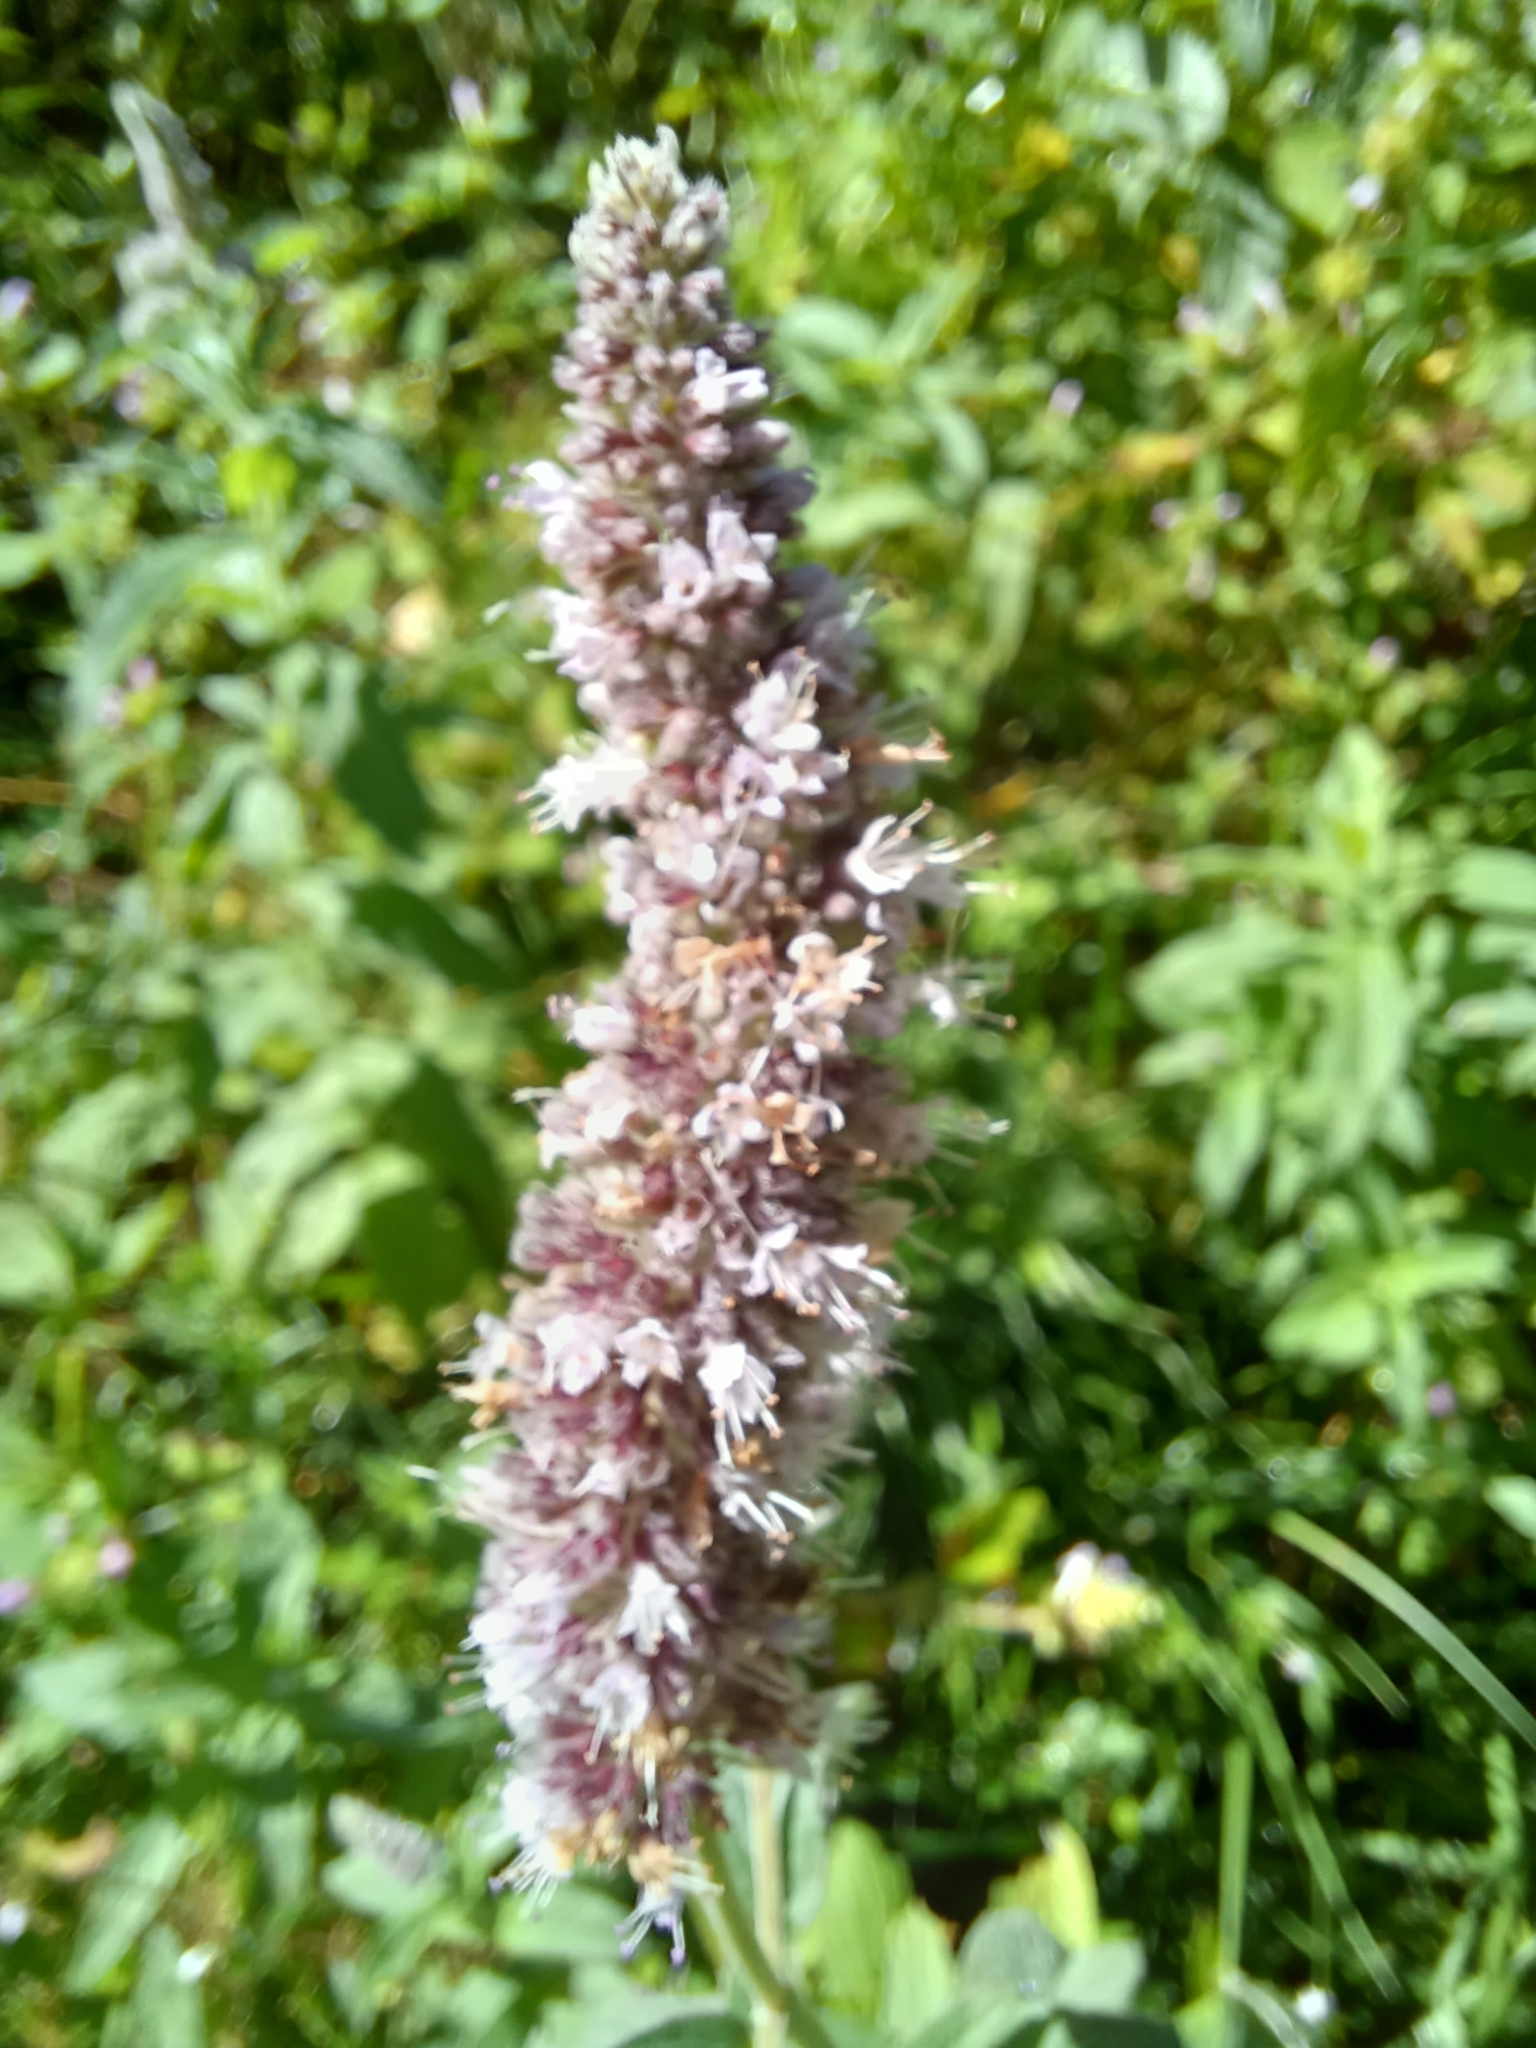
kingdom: Plantae
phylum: Tracheophyta
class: Magnoliopsida
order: Lamiales
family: Lamiaceae
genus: Mentha
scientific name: Mentha longifolia
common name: Horse mint
